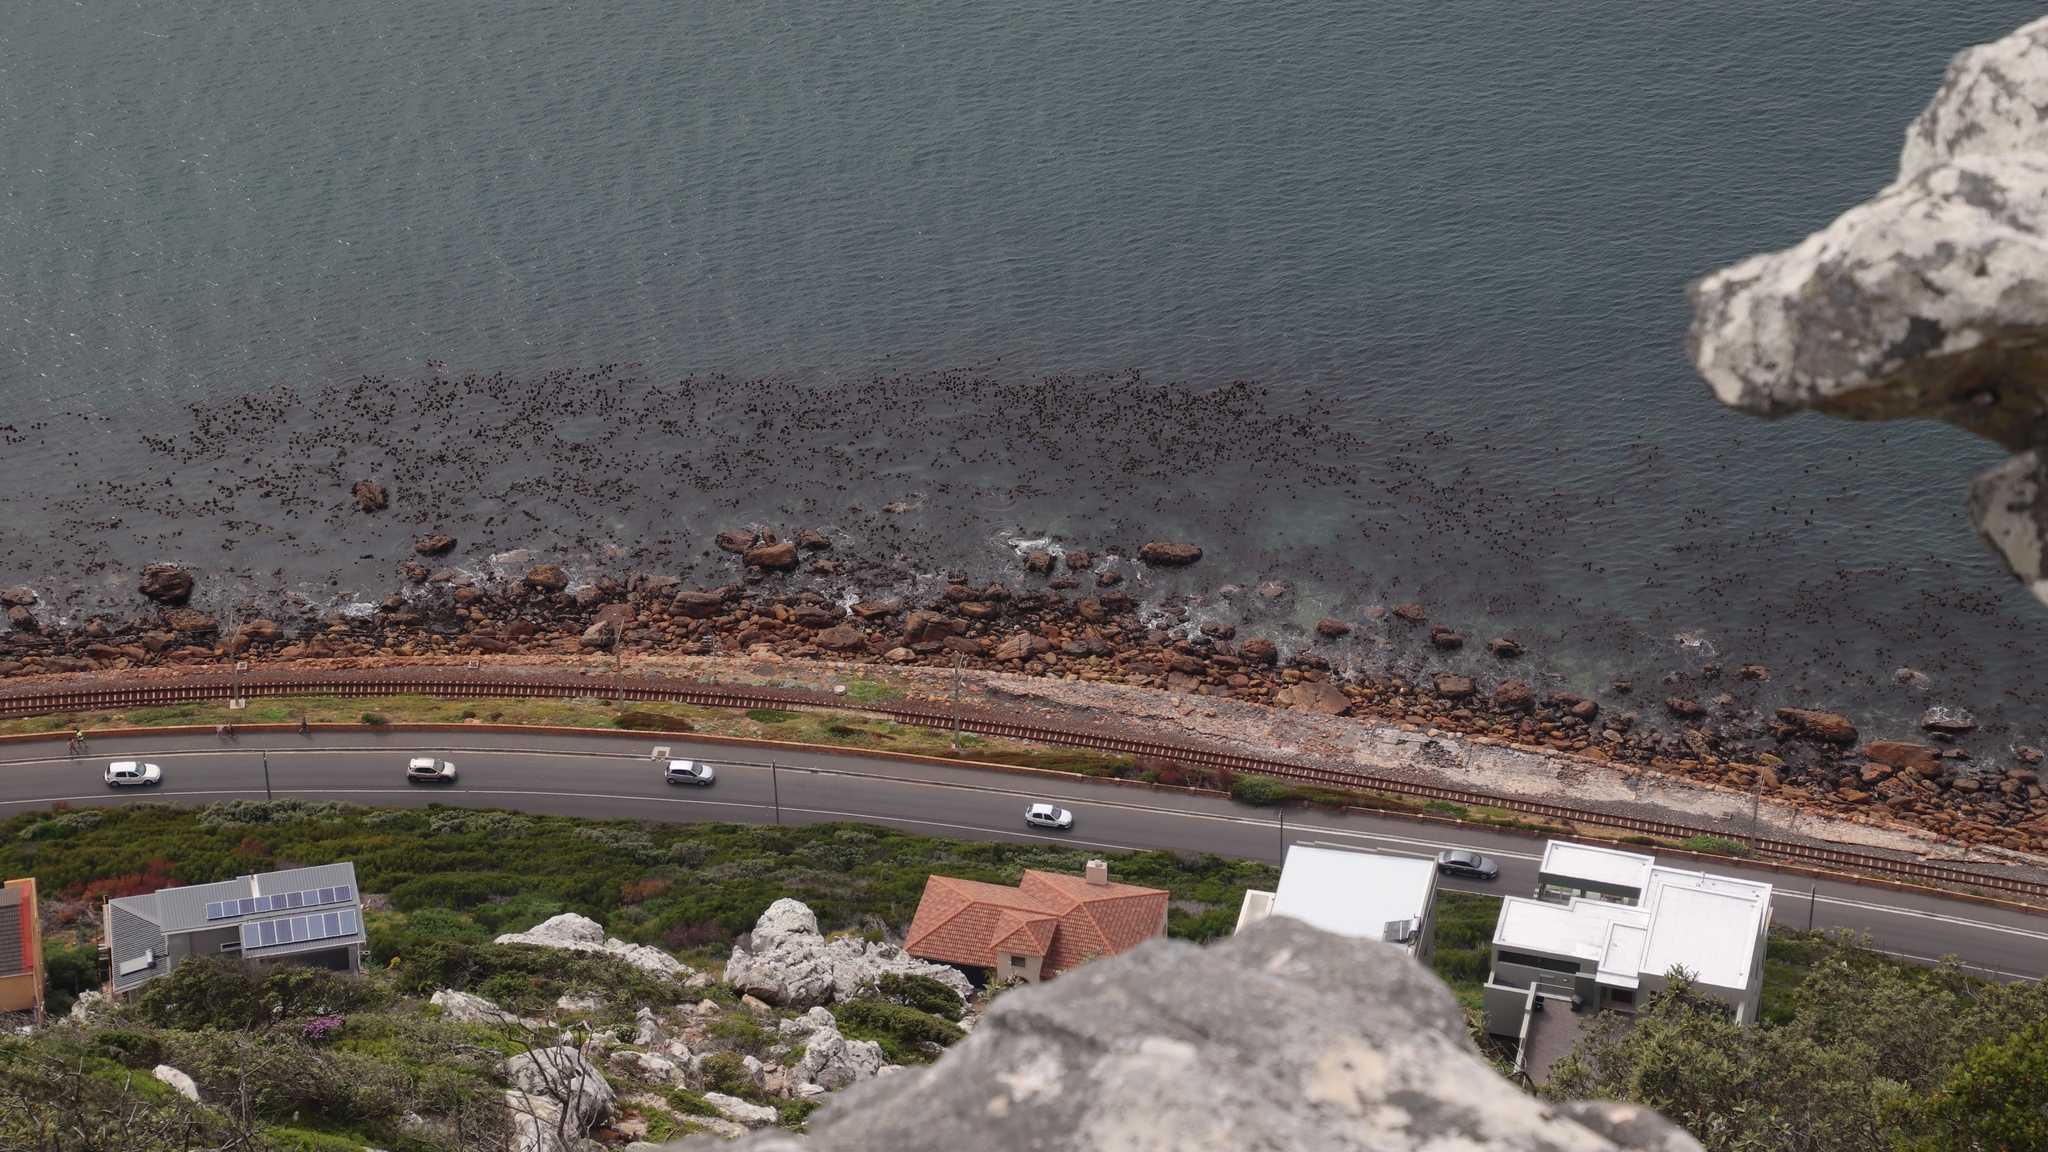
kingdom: Chromista
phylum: Ochrophyta
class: Phaeophyceae
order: Laminariales
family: Lessoniaceae
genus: Ecklonia
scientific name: Ecklonia
